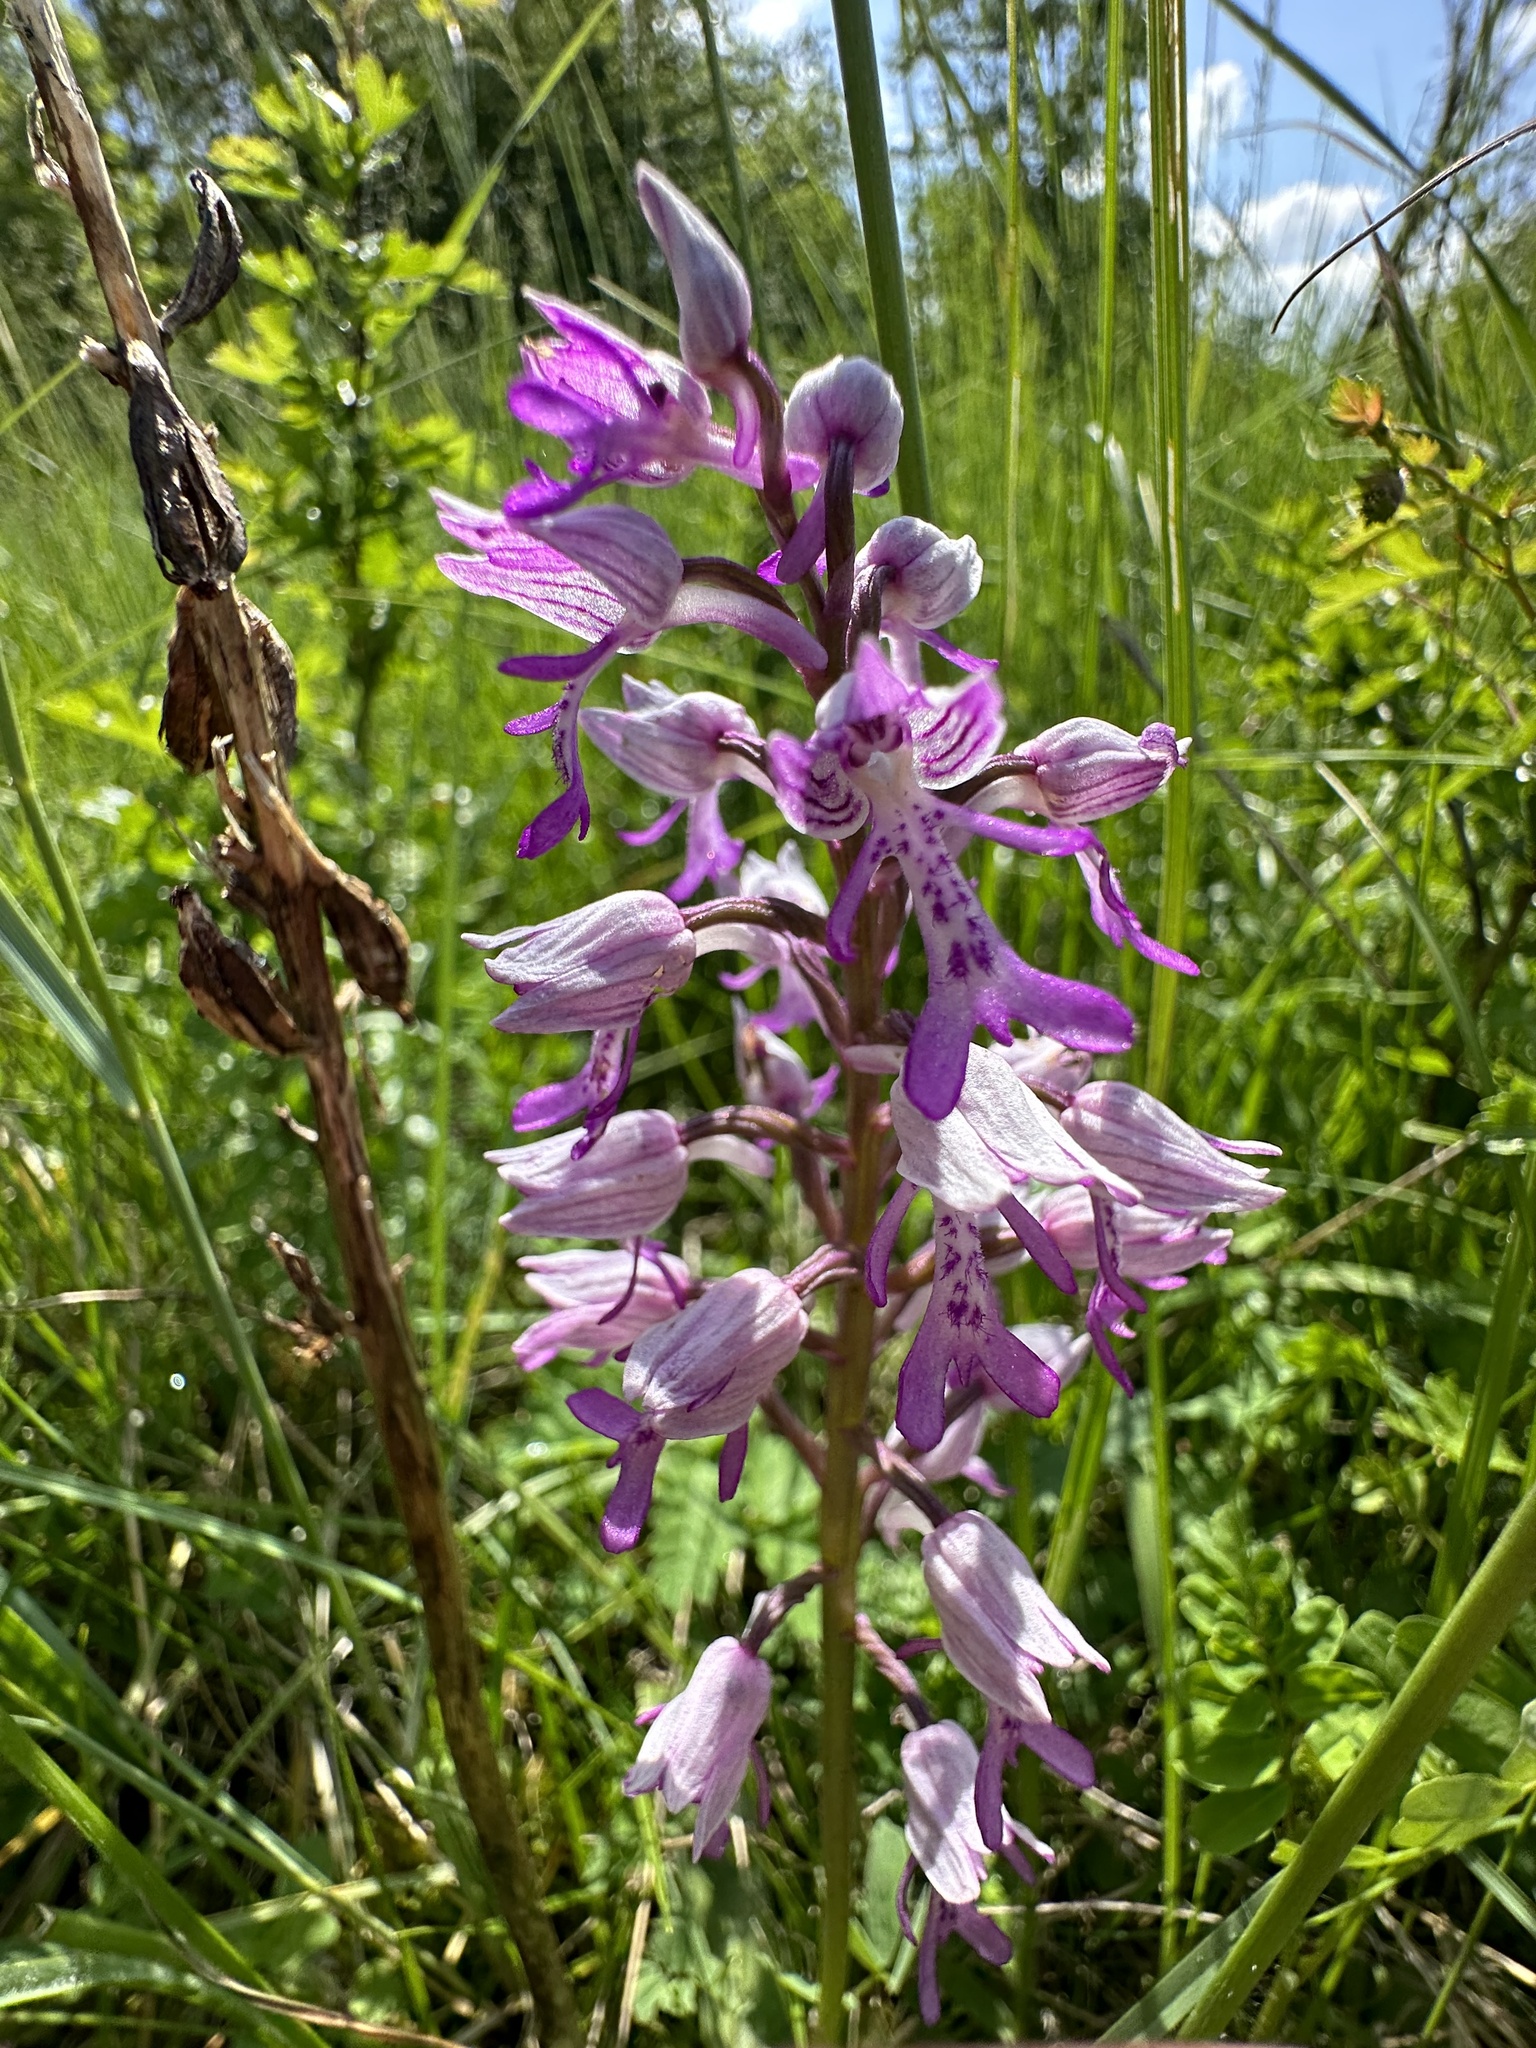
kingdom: Plantae
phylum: Tracheophyta
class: Liliopsida
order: Asparagales
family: Orchidaceae
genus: Orchis
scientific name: Orchis militaris
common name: Military orchid
